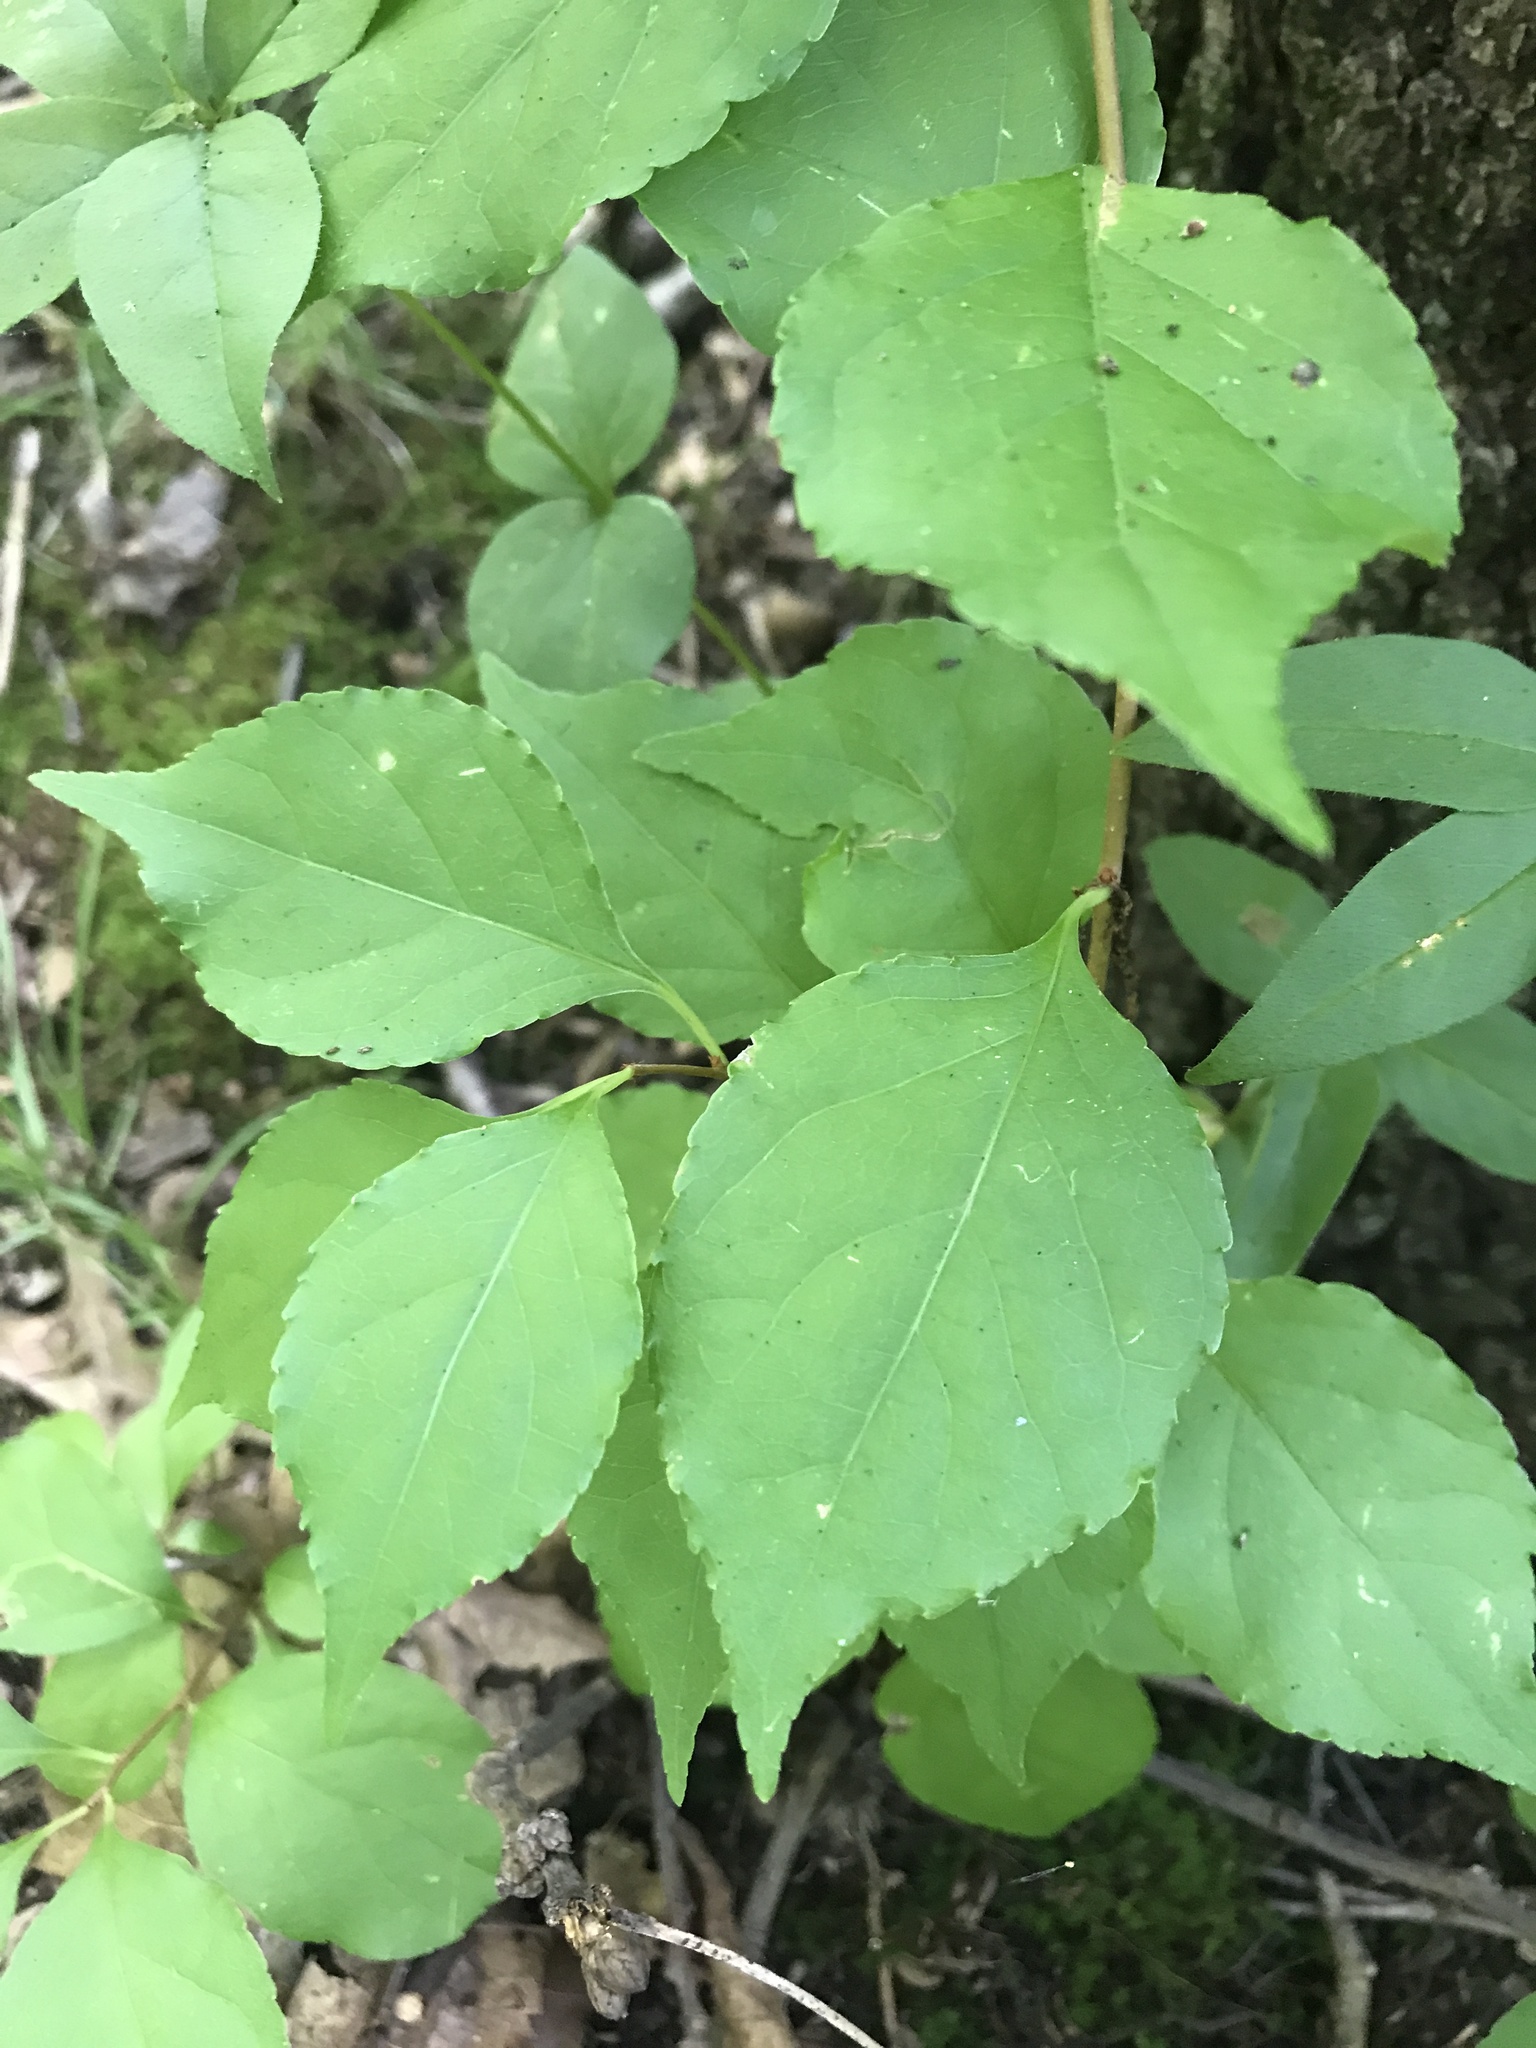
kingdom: Plantae
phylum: Tracheophyta
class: Magnoliopsida
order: Celastrales
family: Celastraceae
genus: Celastrus
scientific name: Celastrus orbiculatus
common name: Oriental bittersweet
